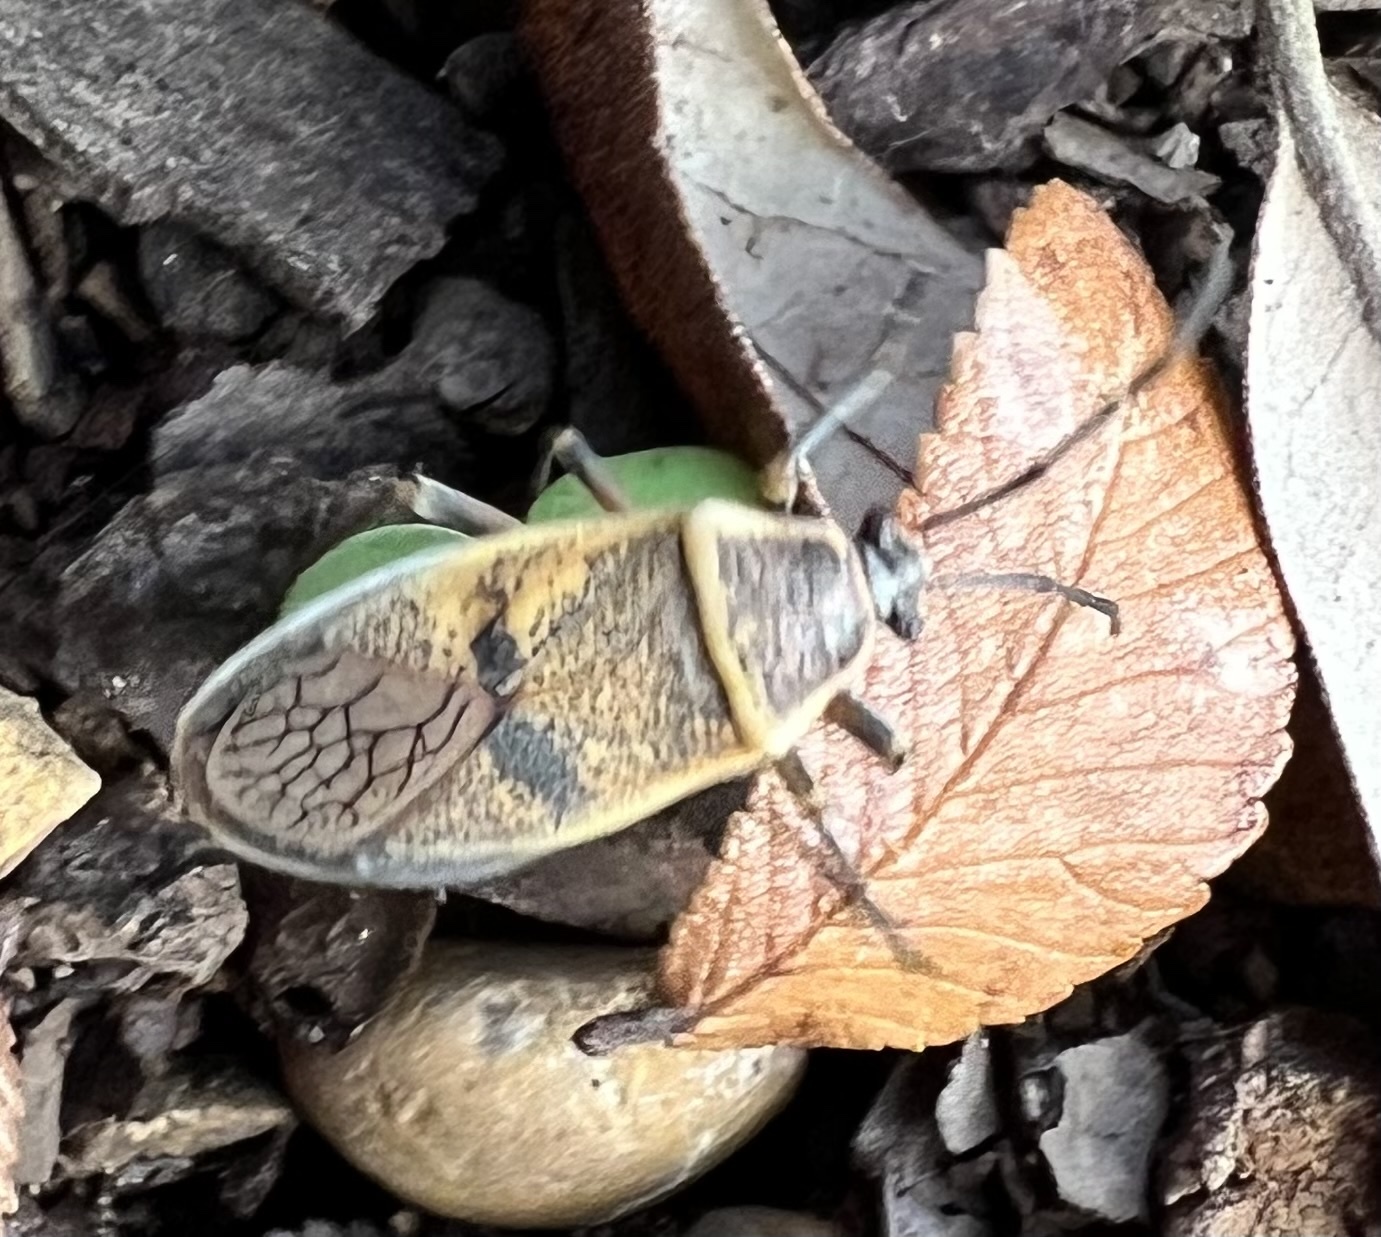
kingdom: Animalia
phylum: Arthropoda
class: Insecta
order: Hemiptera
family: Largidae
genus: Largus
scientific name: Largus maculatus
